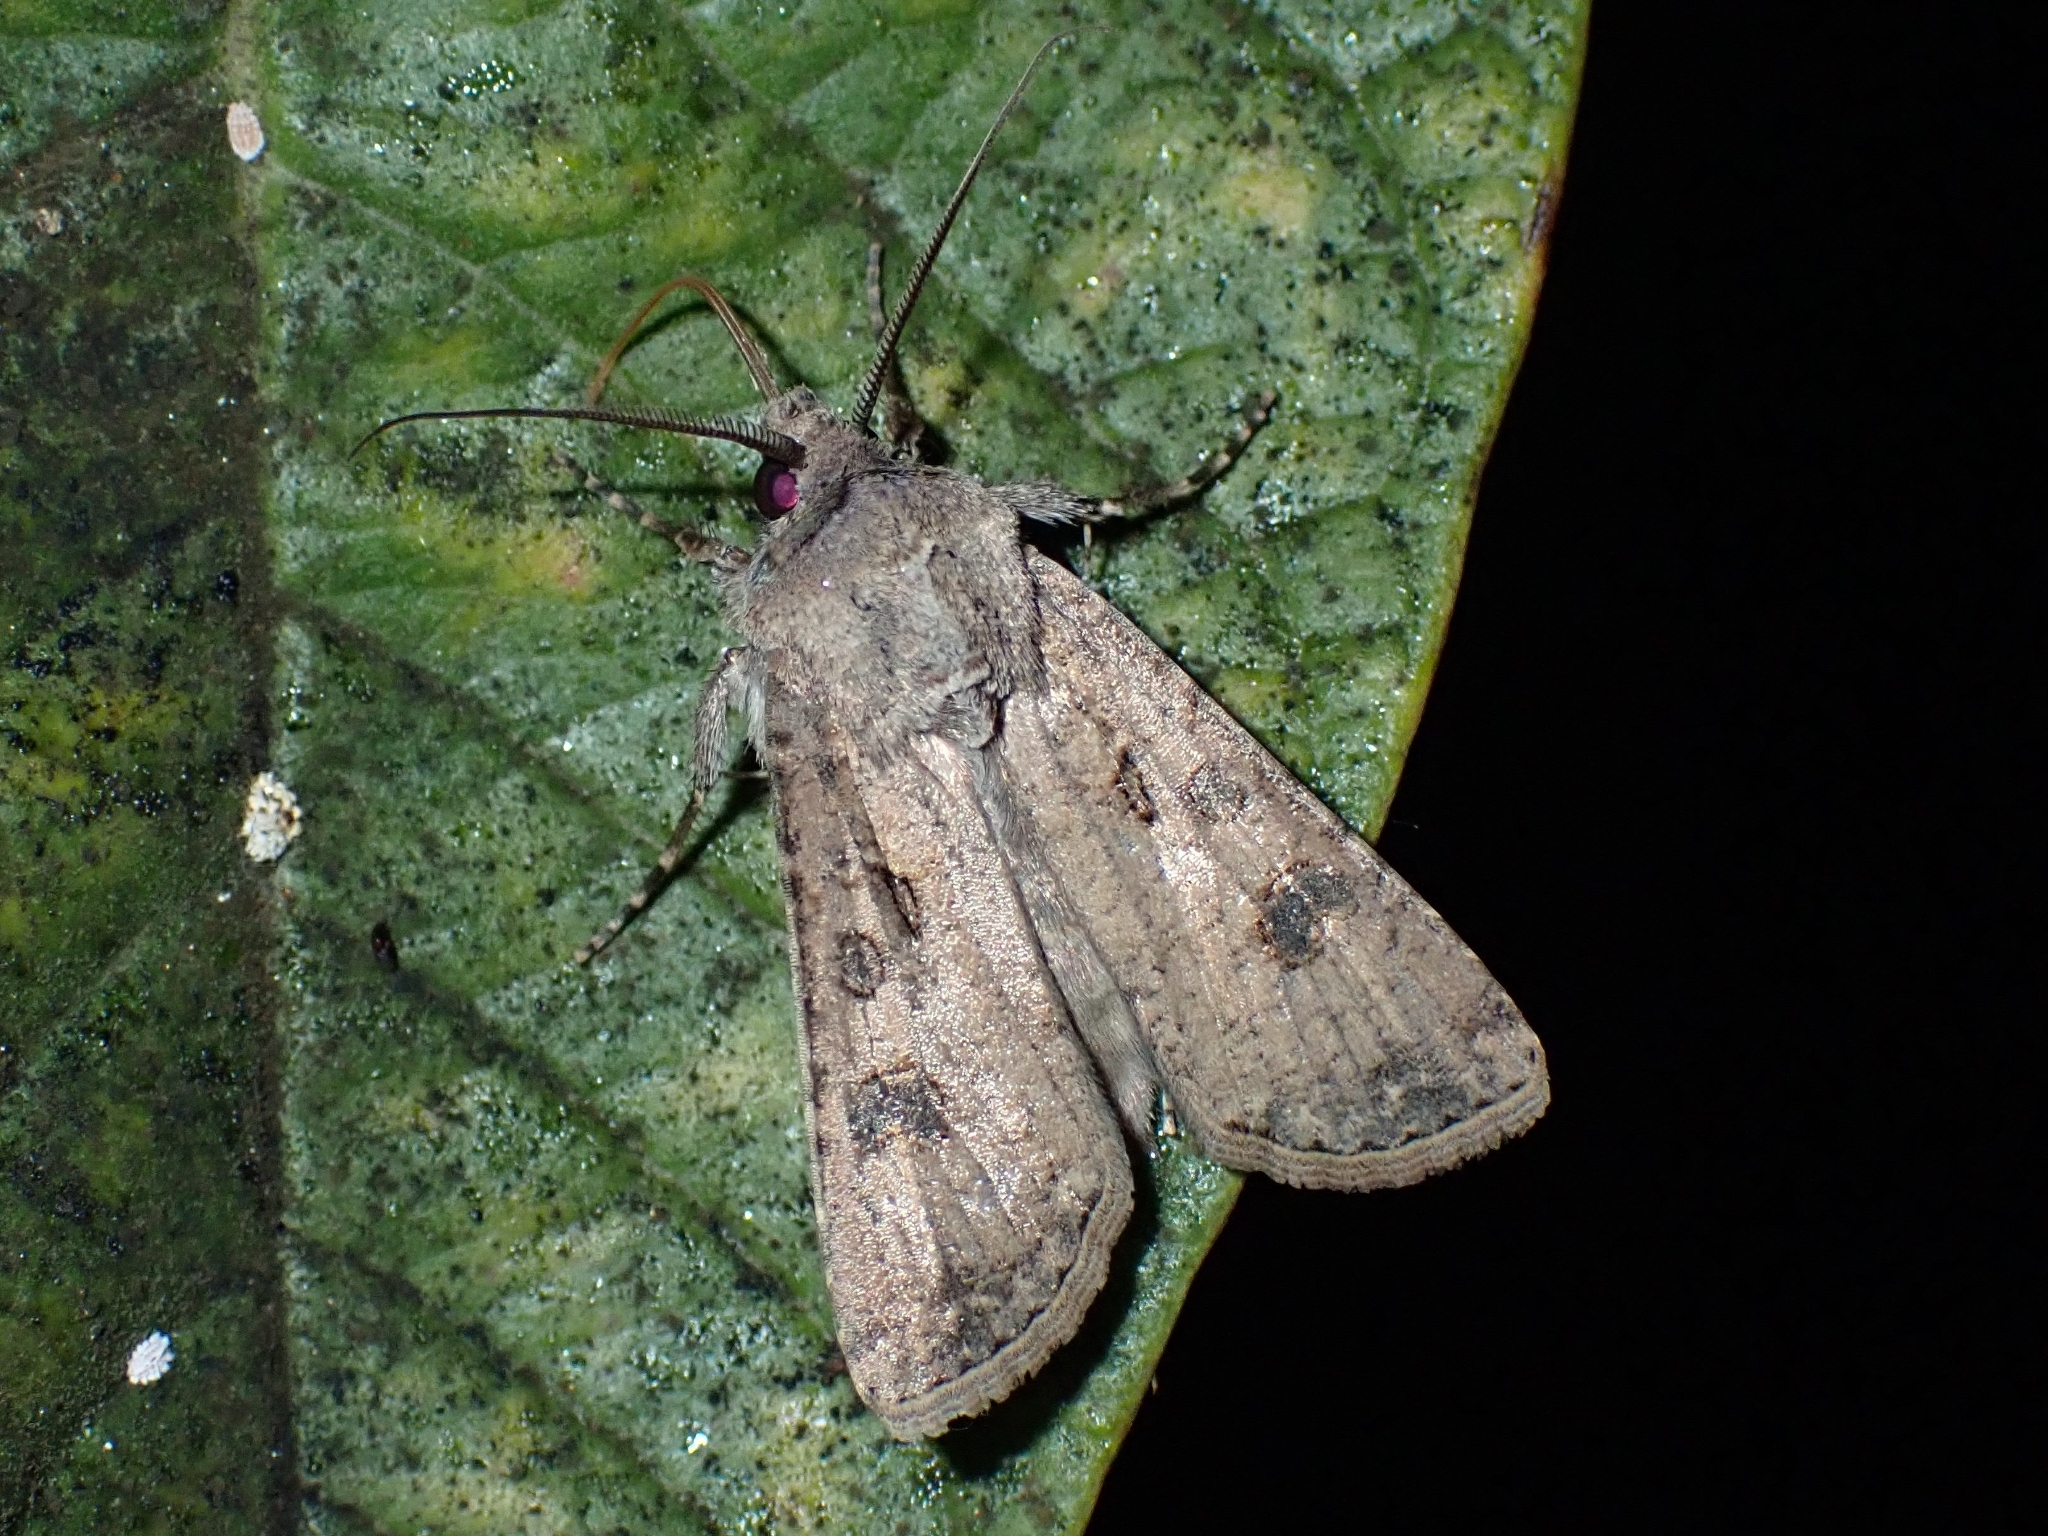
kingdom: Animalia
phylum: Arthropoda
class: Insecta
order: Lepidoptera
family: Noctuidae
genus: Agrotis
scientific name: Agrotis segetum
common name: Turnip moth
